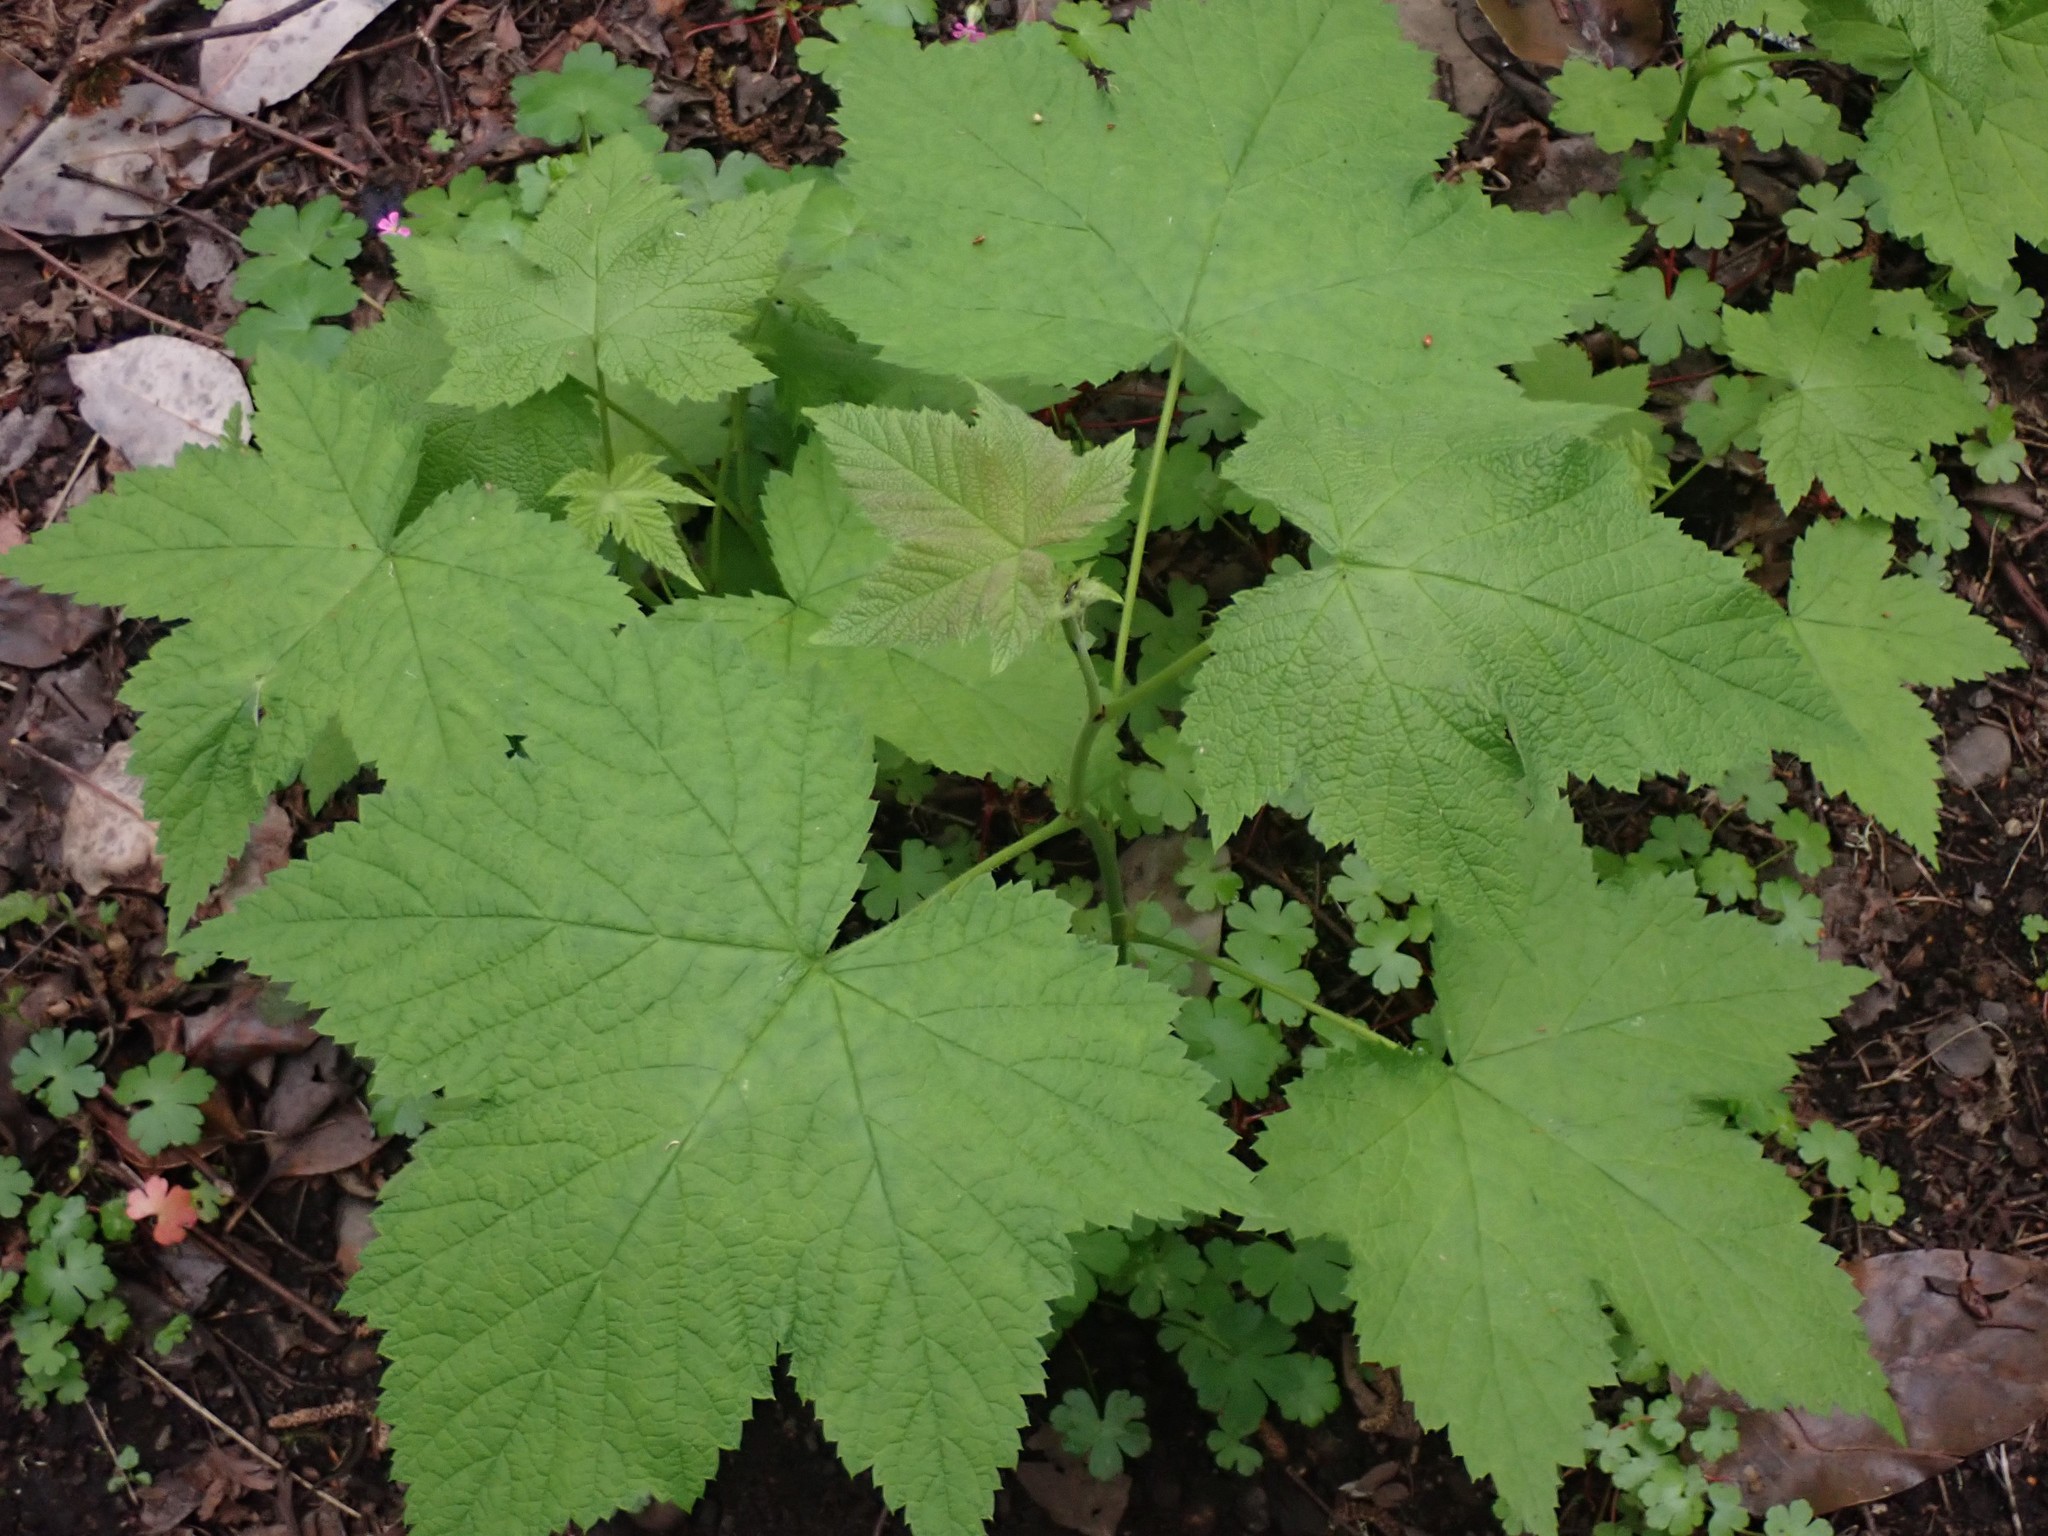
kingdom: Plantae
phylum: Tracheophyta
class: Magnoliopsida
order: Rosales
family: Rosaceae
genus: Rubus
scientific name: Rubus parviflorus
